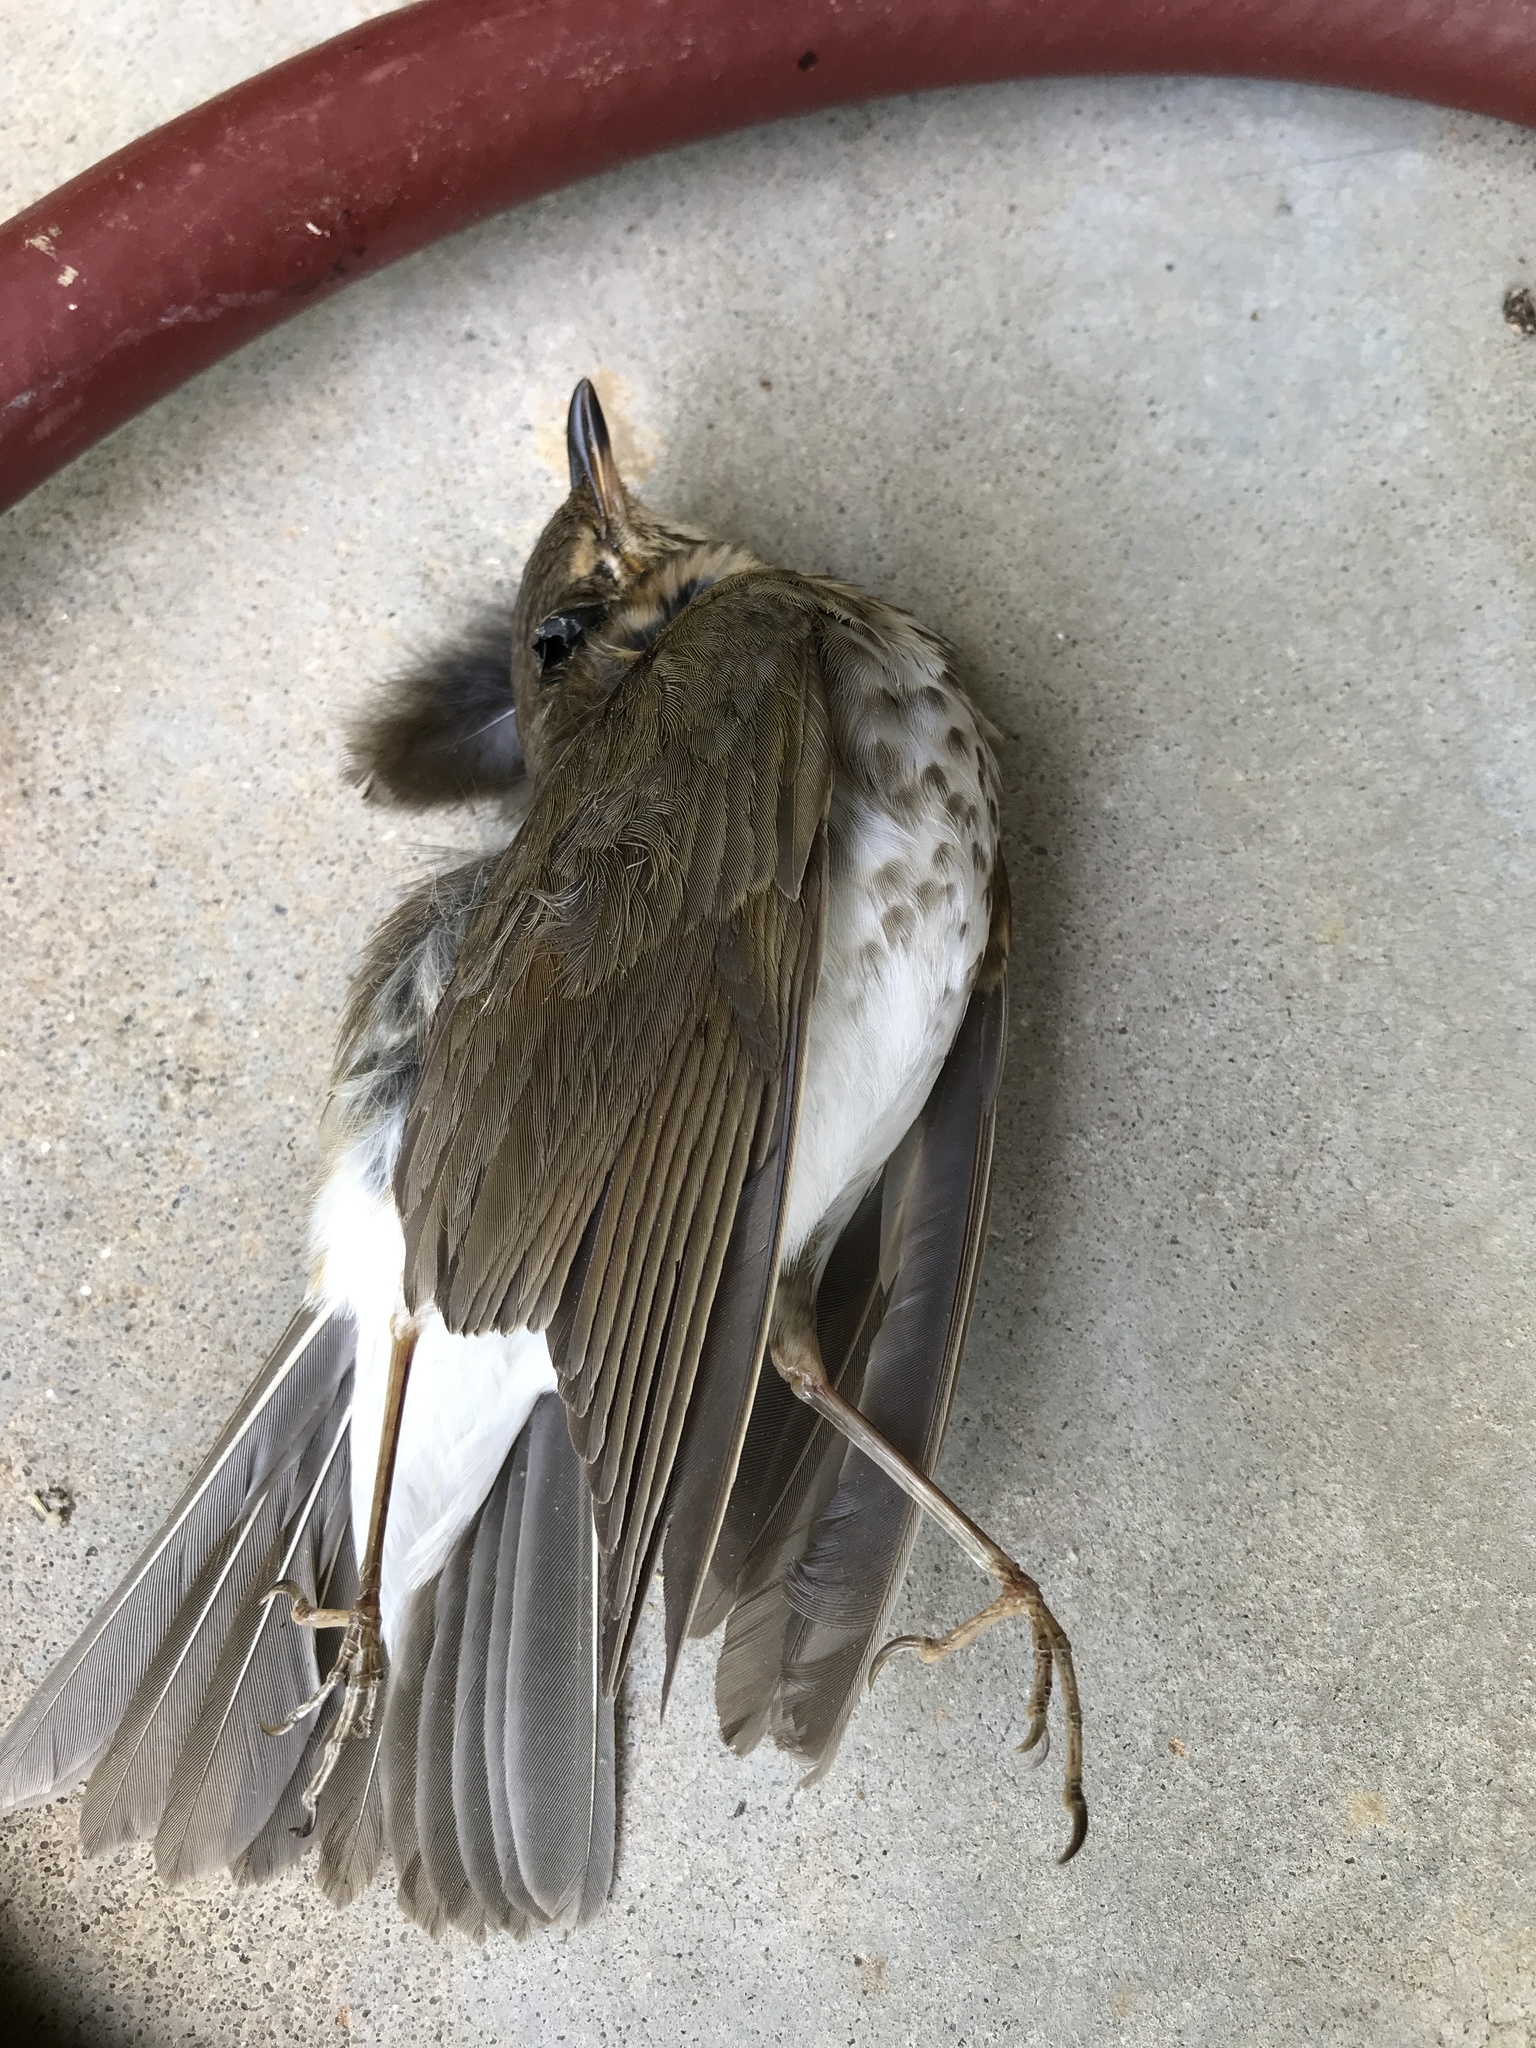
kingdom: Animalia
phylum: Chordata
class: Aves
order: Passeriformes
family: Turdidae
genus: Catharus
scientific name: Catharus ustulatus
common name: Swainson's thrush
